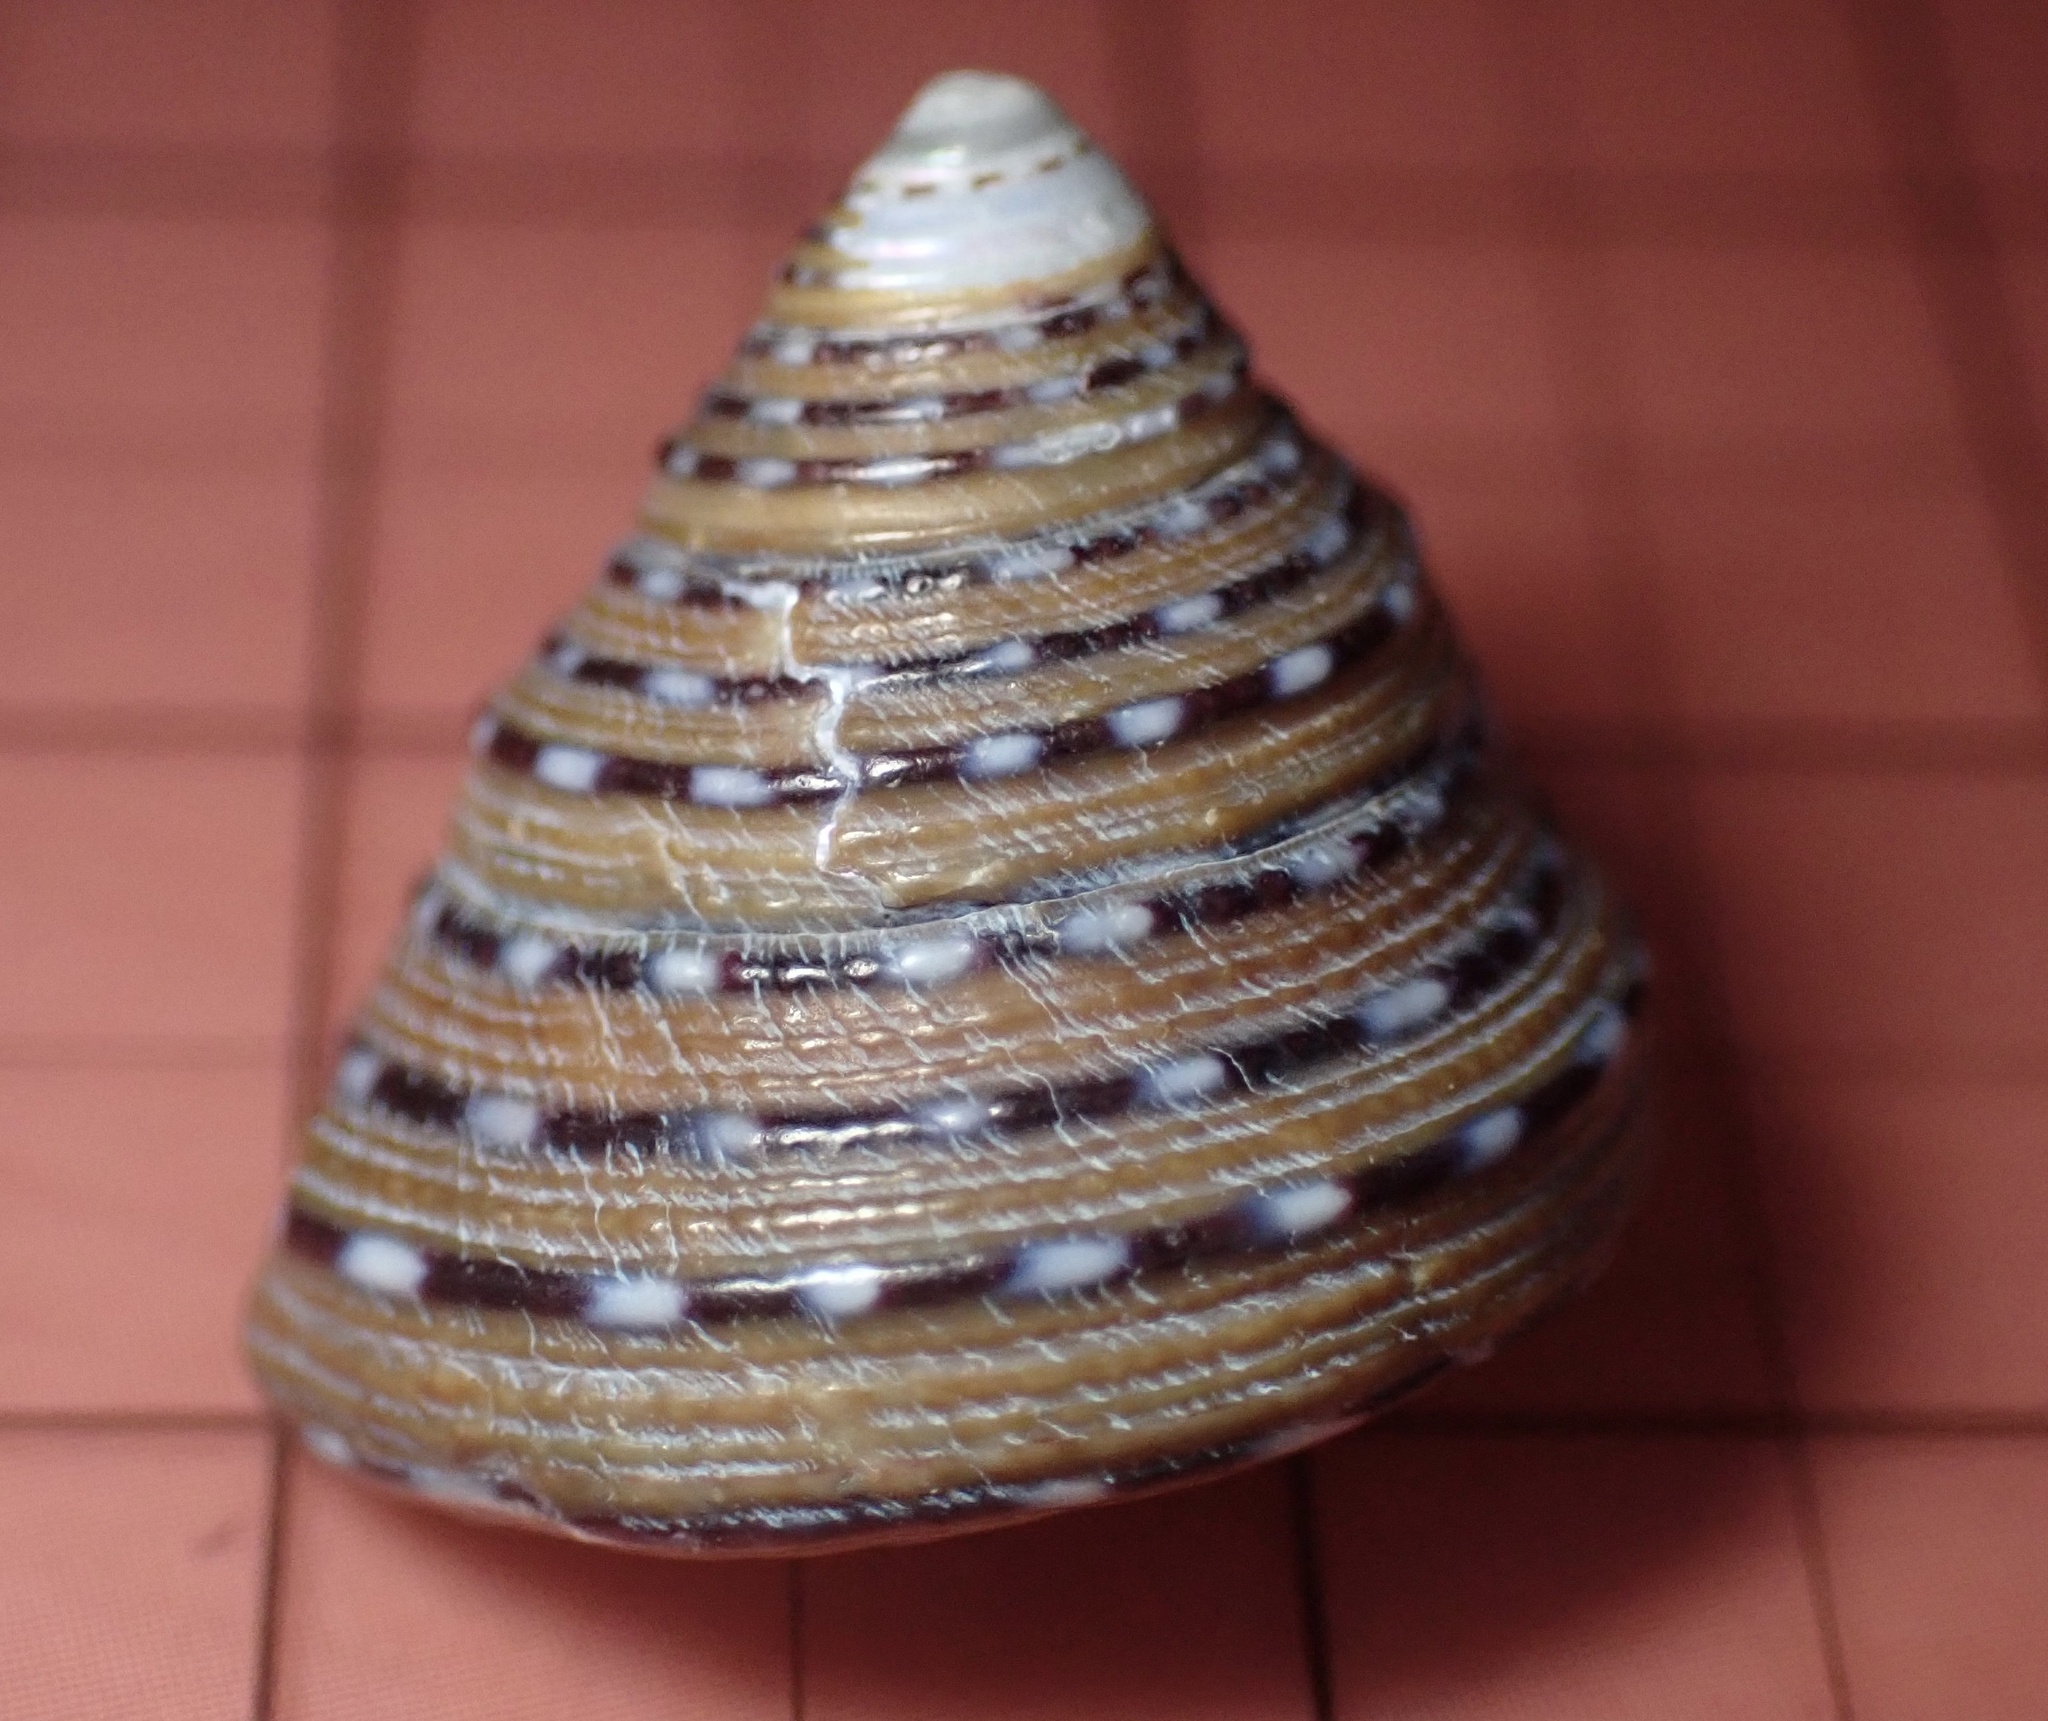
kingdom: Animalia
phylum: Mollusca
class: Gastropoda
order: Trochida
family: Calliostomatidae
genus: Calliostoma
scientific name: Calliostoma tricolor
